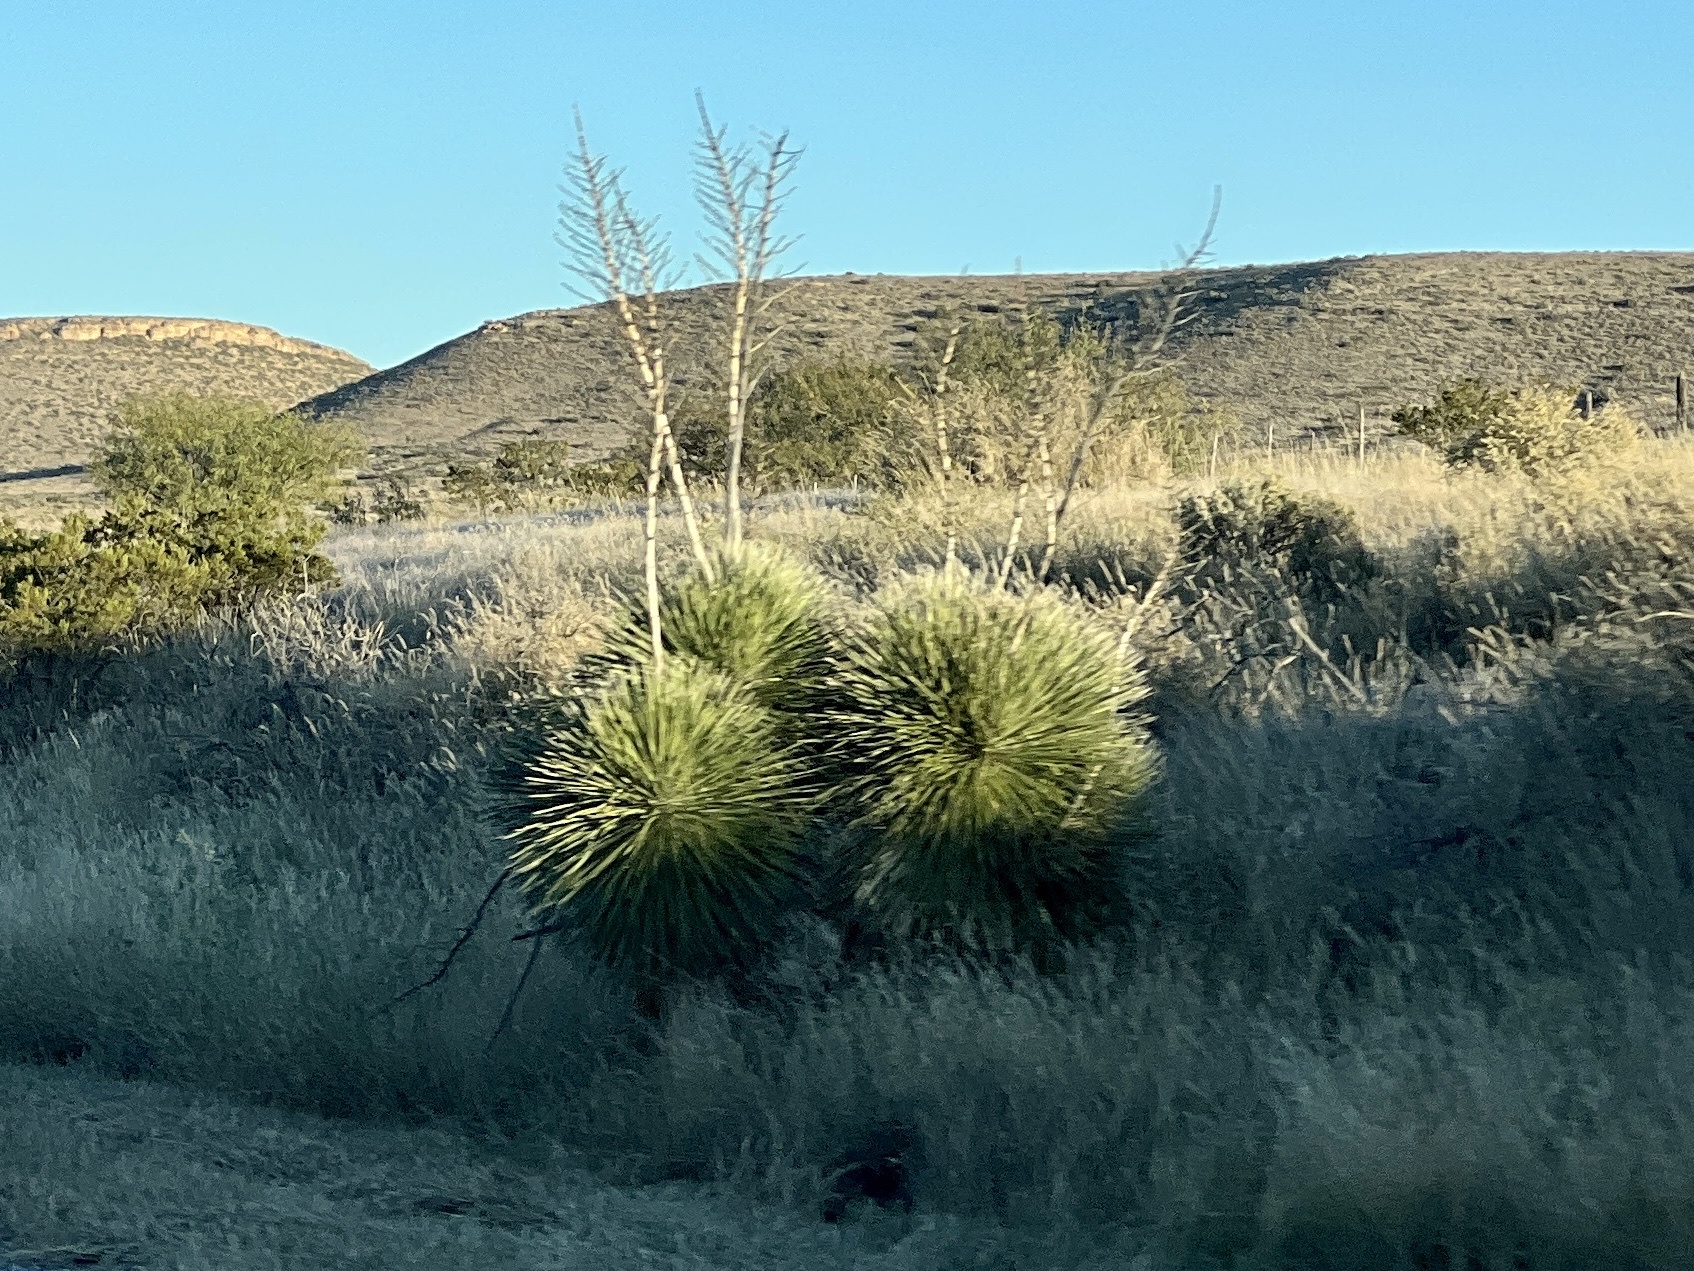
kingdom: Plantae
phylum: Tracheophyta
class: Liliopsida
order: Asparagales
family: Asparagaceae
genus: Yucca
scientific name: Yucca elata
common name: Palmella
